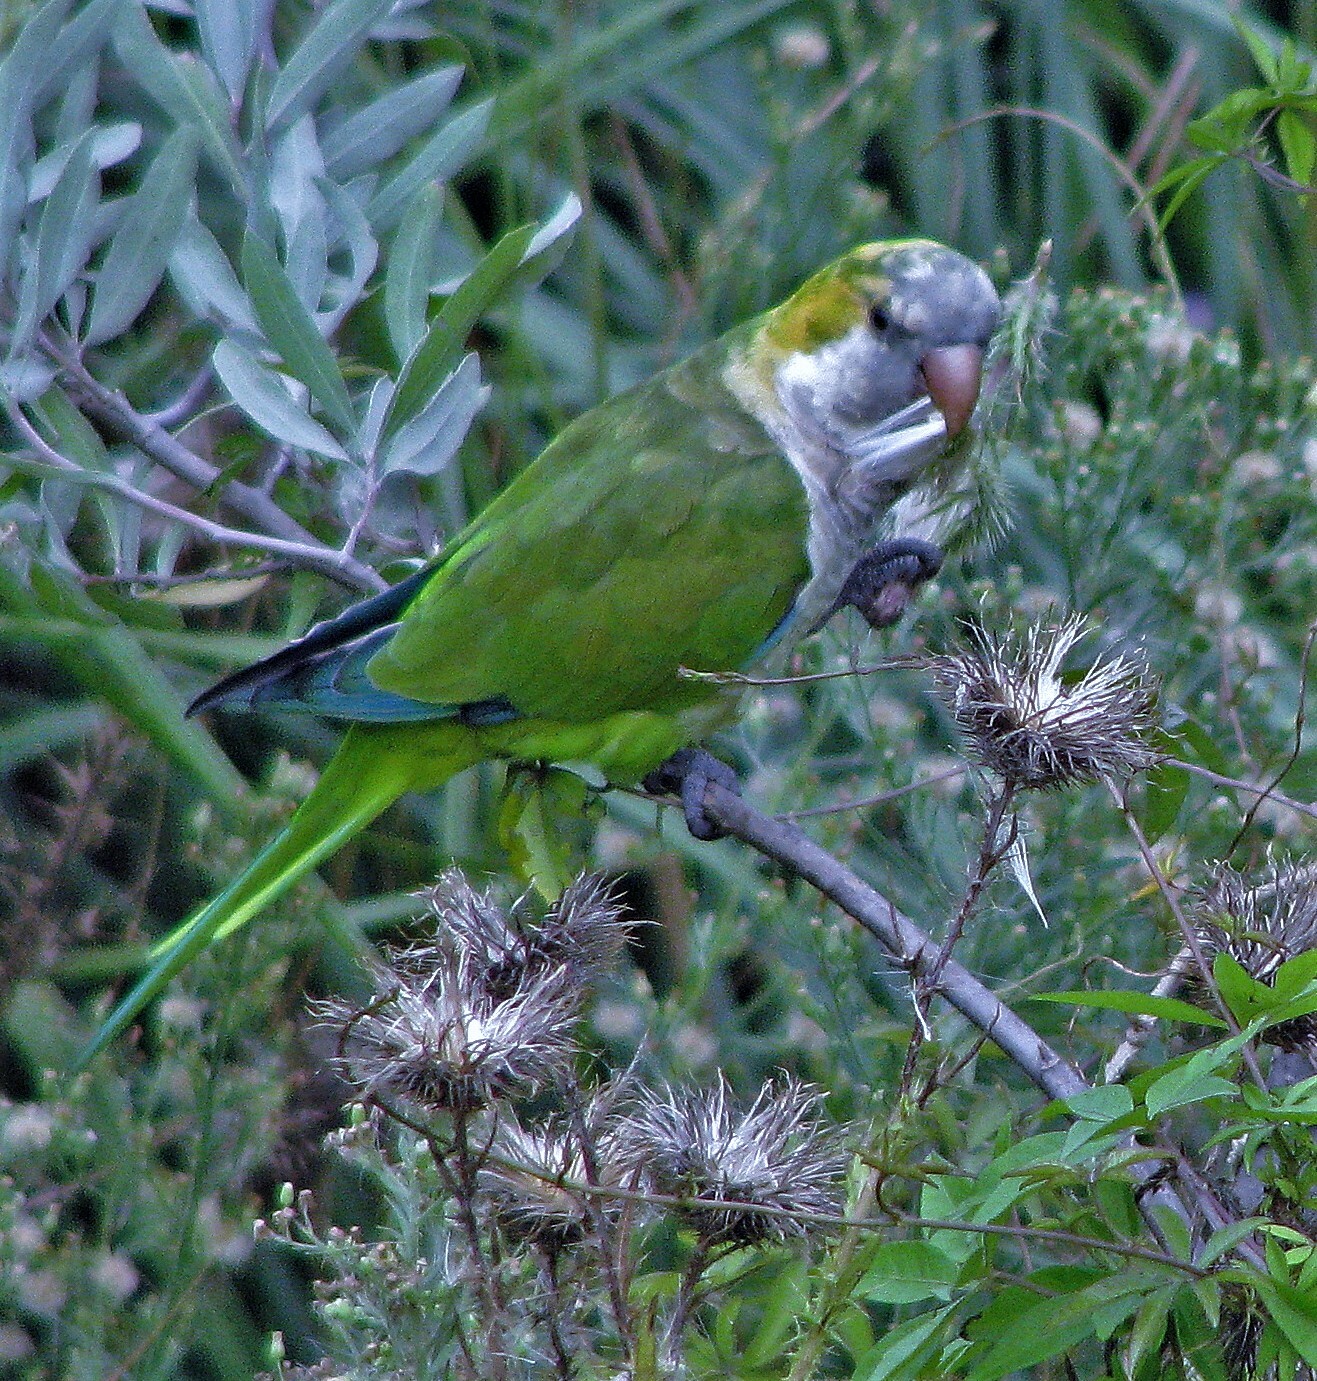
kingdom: Animalia
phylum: Chordata
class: Aves
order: Psittaciformes
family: Psittacidae
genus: Myiopsitta
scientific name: Myiopsitta monachus
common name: Monk parakeet
